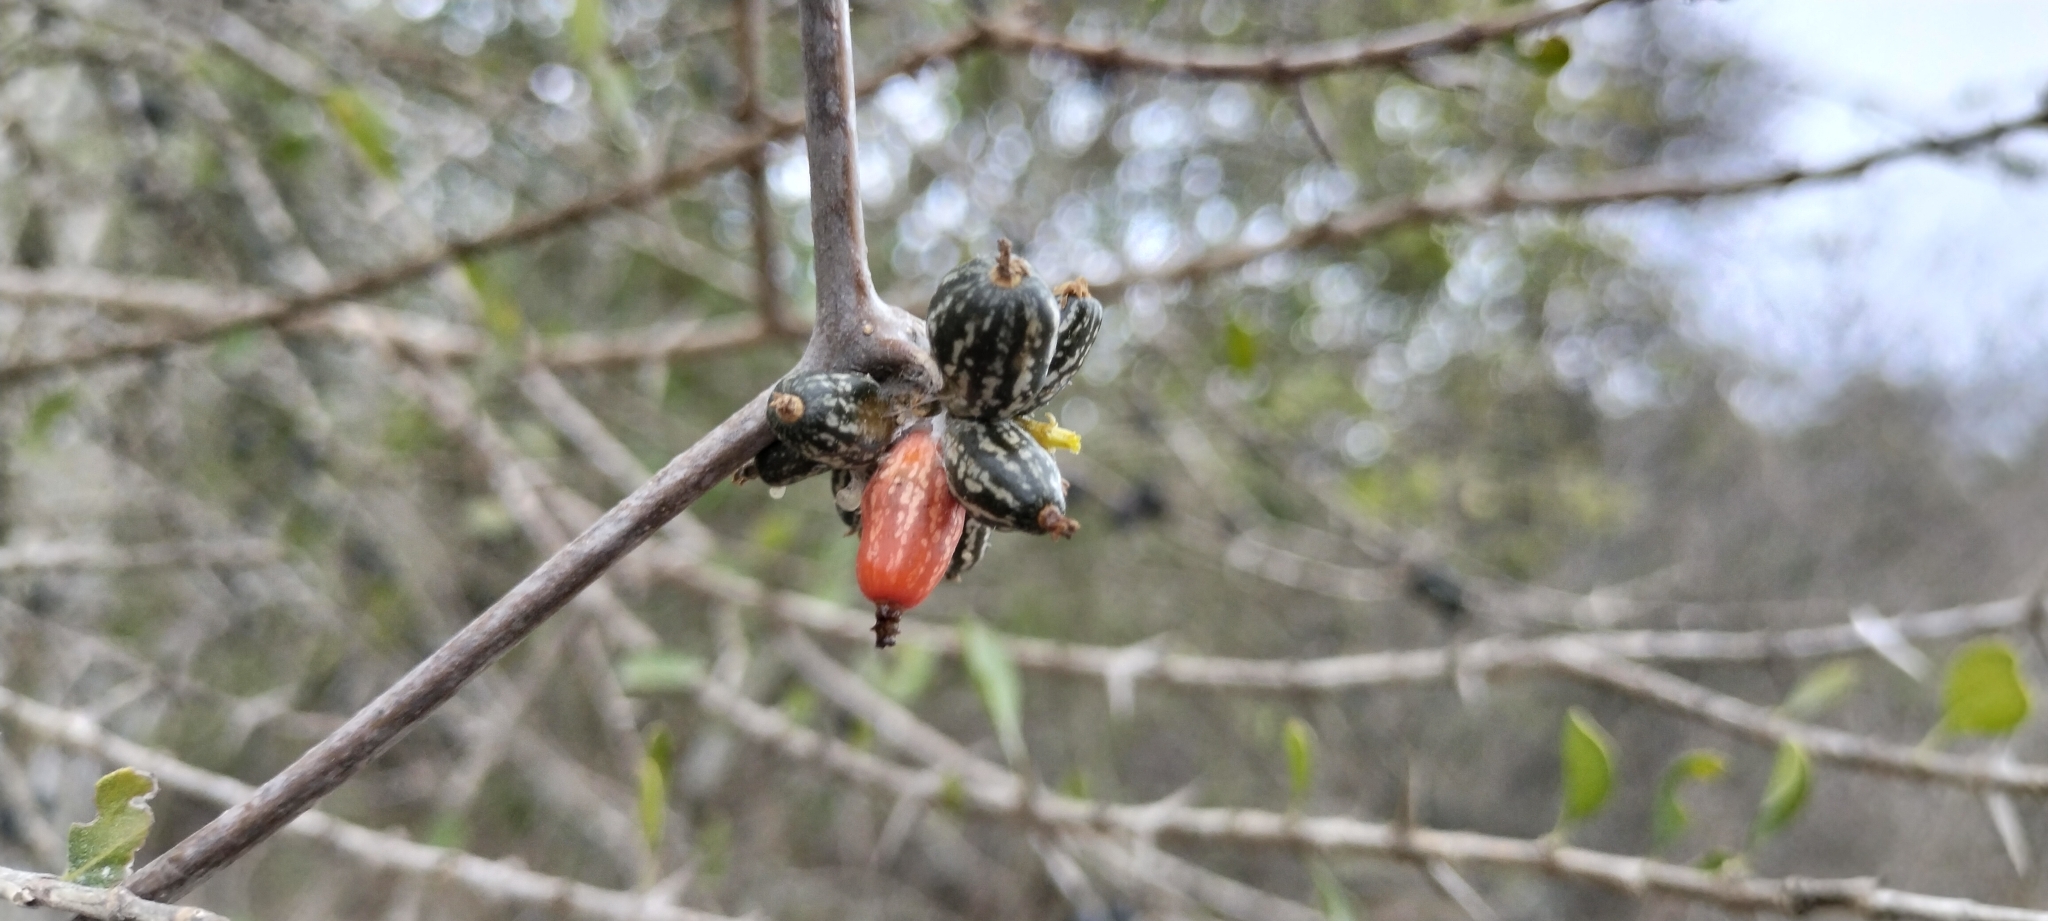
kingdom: Plantae
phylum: Tracheophyta
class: Magnoliopsida
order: Cucurbitales
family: Cucurbitaceae
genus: Doyerea
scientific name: Doyerea emetocathartica
